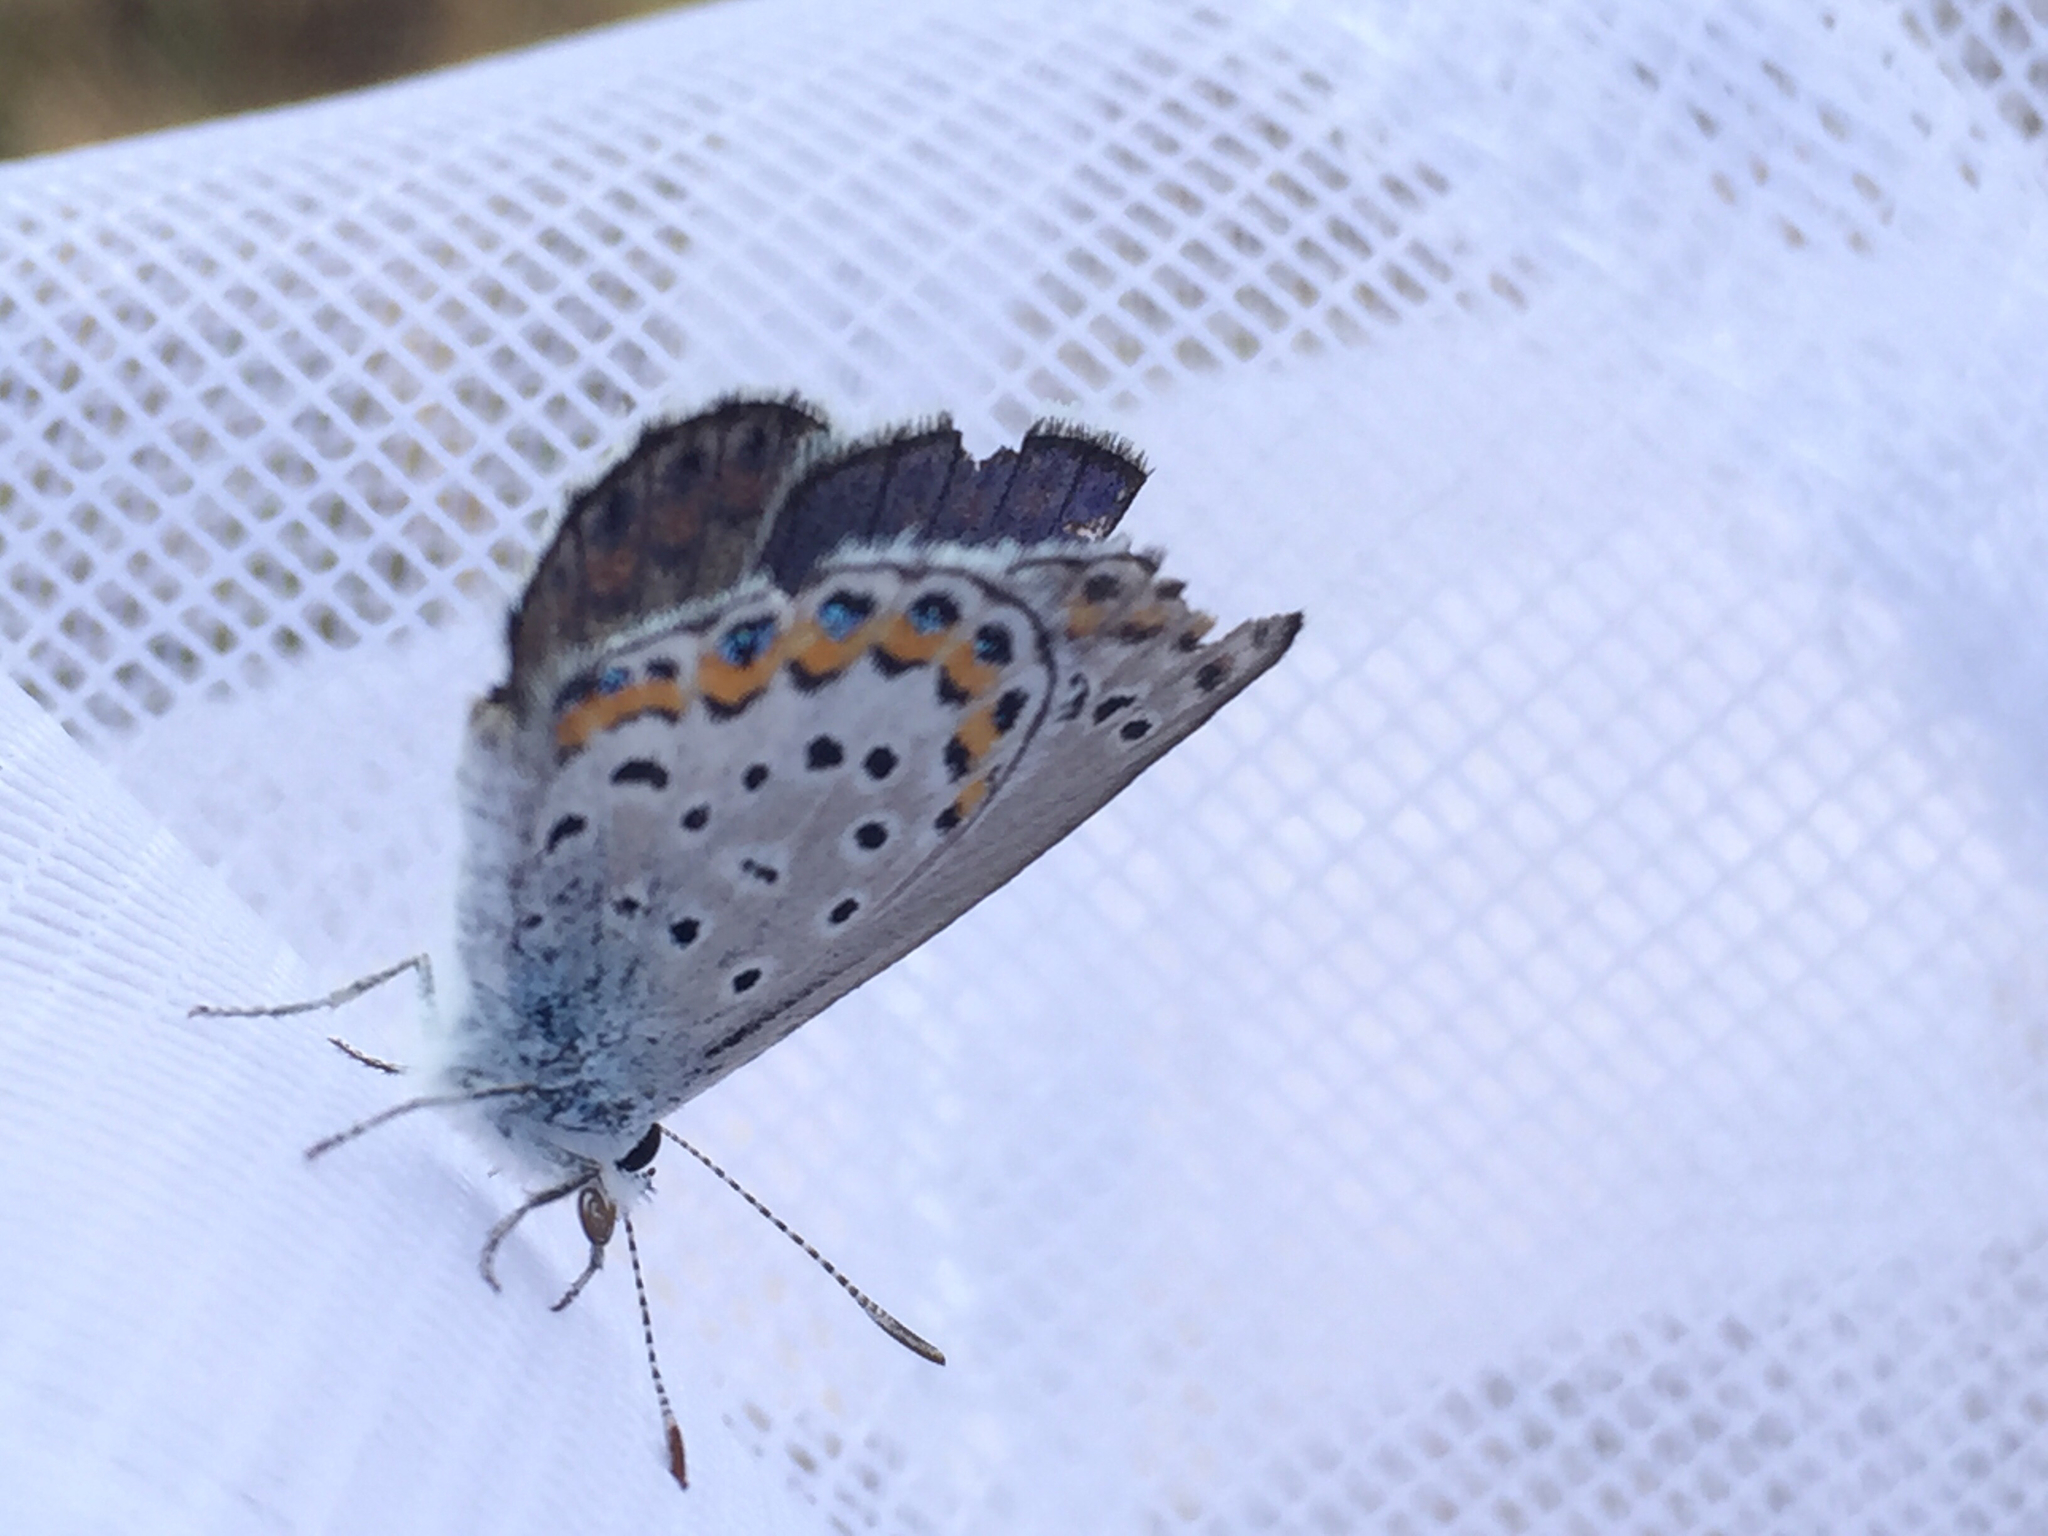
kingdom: Animalia
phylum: Arthropoda
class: Insecta
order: Lepidoptera
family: Lycaenidae
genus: Lycaeides
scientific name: Lycaeides melissa
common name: Melissa blue
